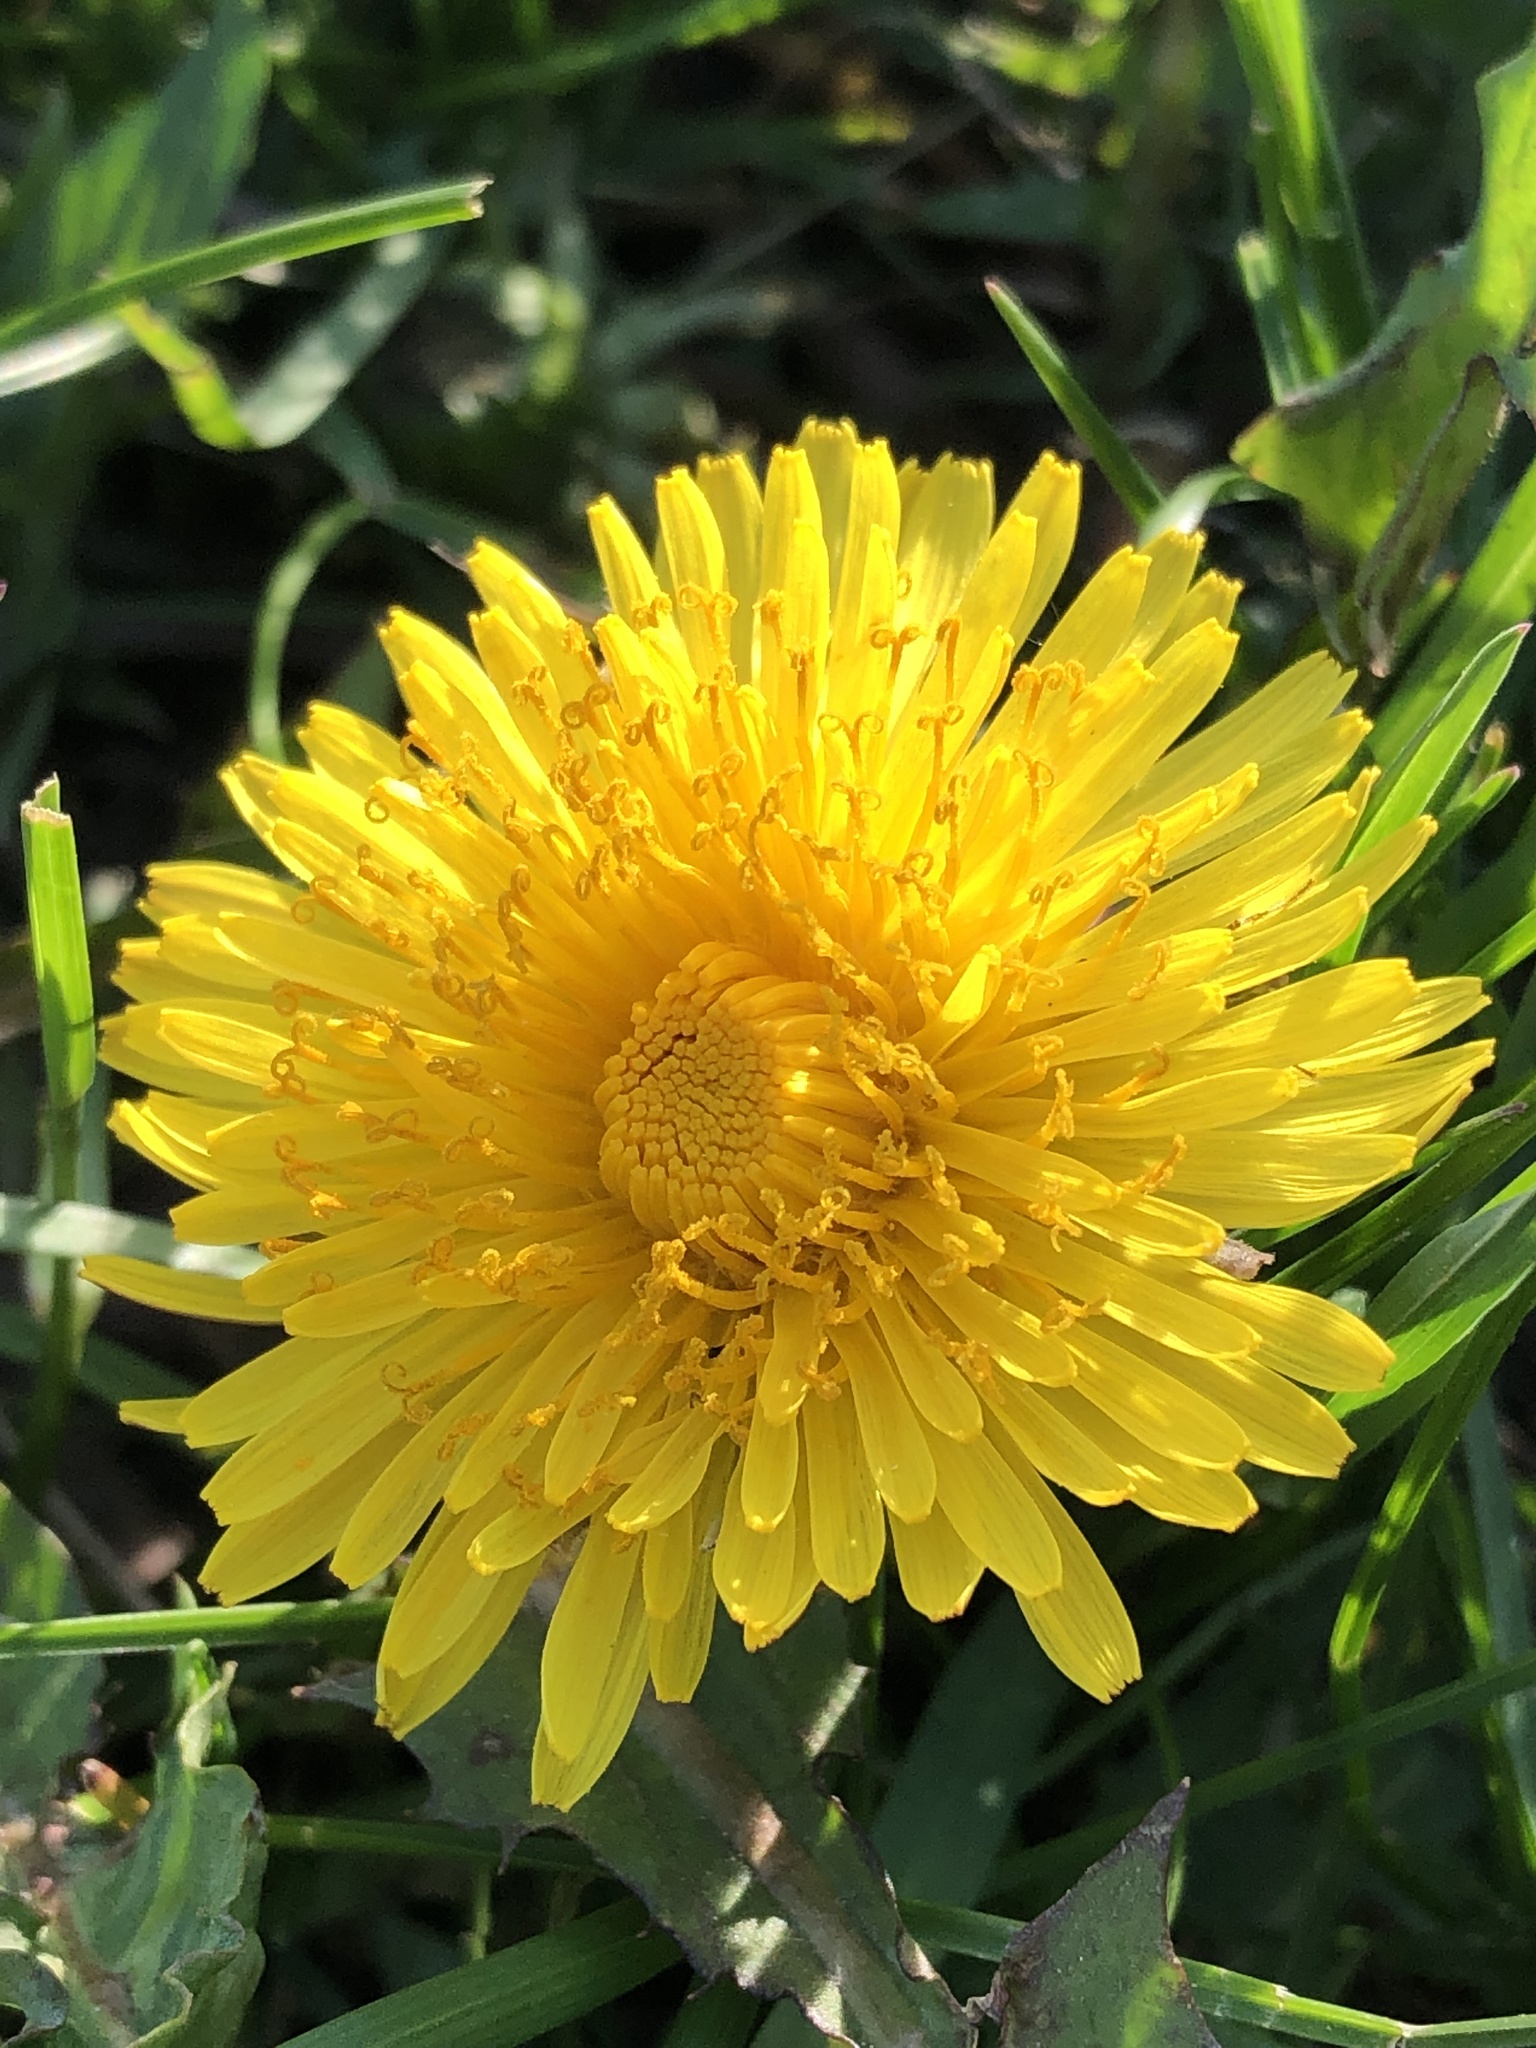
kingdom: Plantae
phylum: Tracheophyta
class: Magnoliopsida
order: Asterales
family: Asteraceae
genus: Taraxacum
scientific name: Taraxacum officinale
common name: Common dandelion
